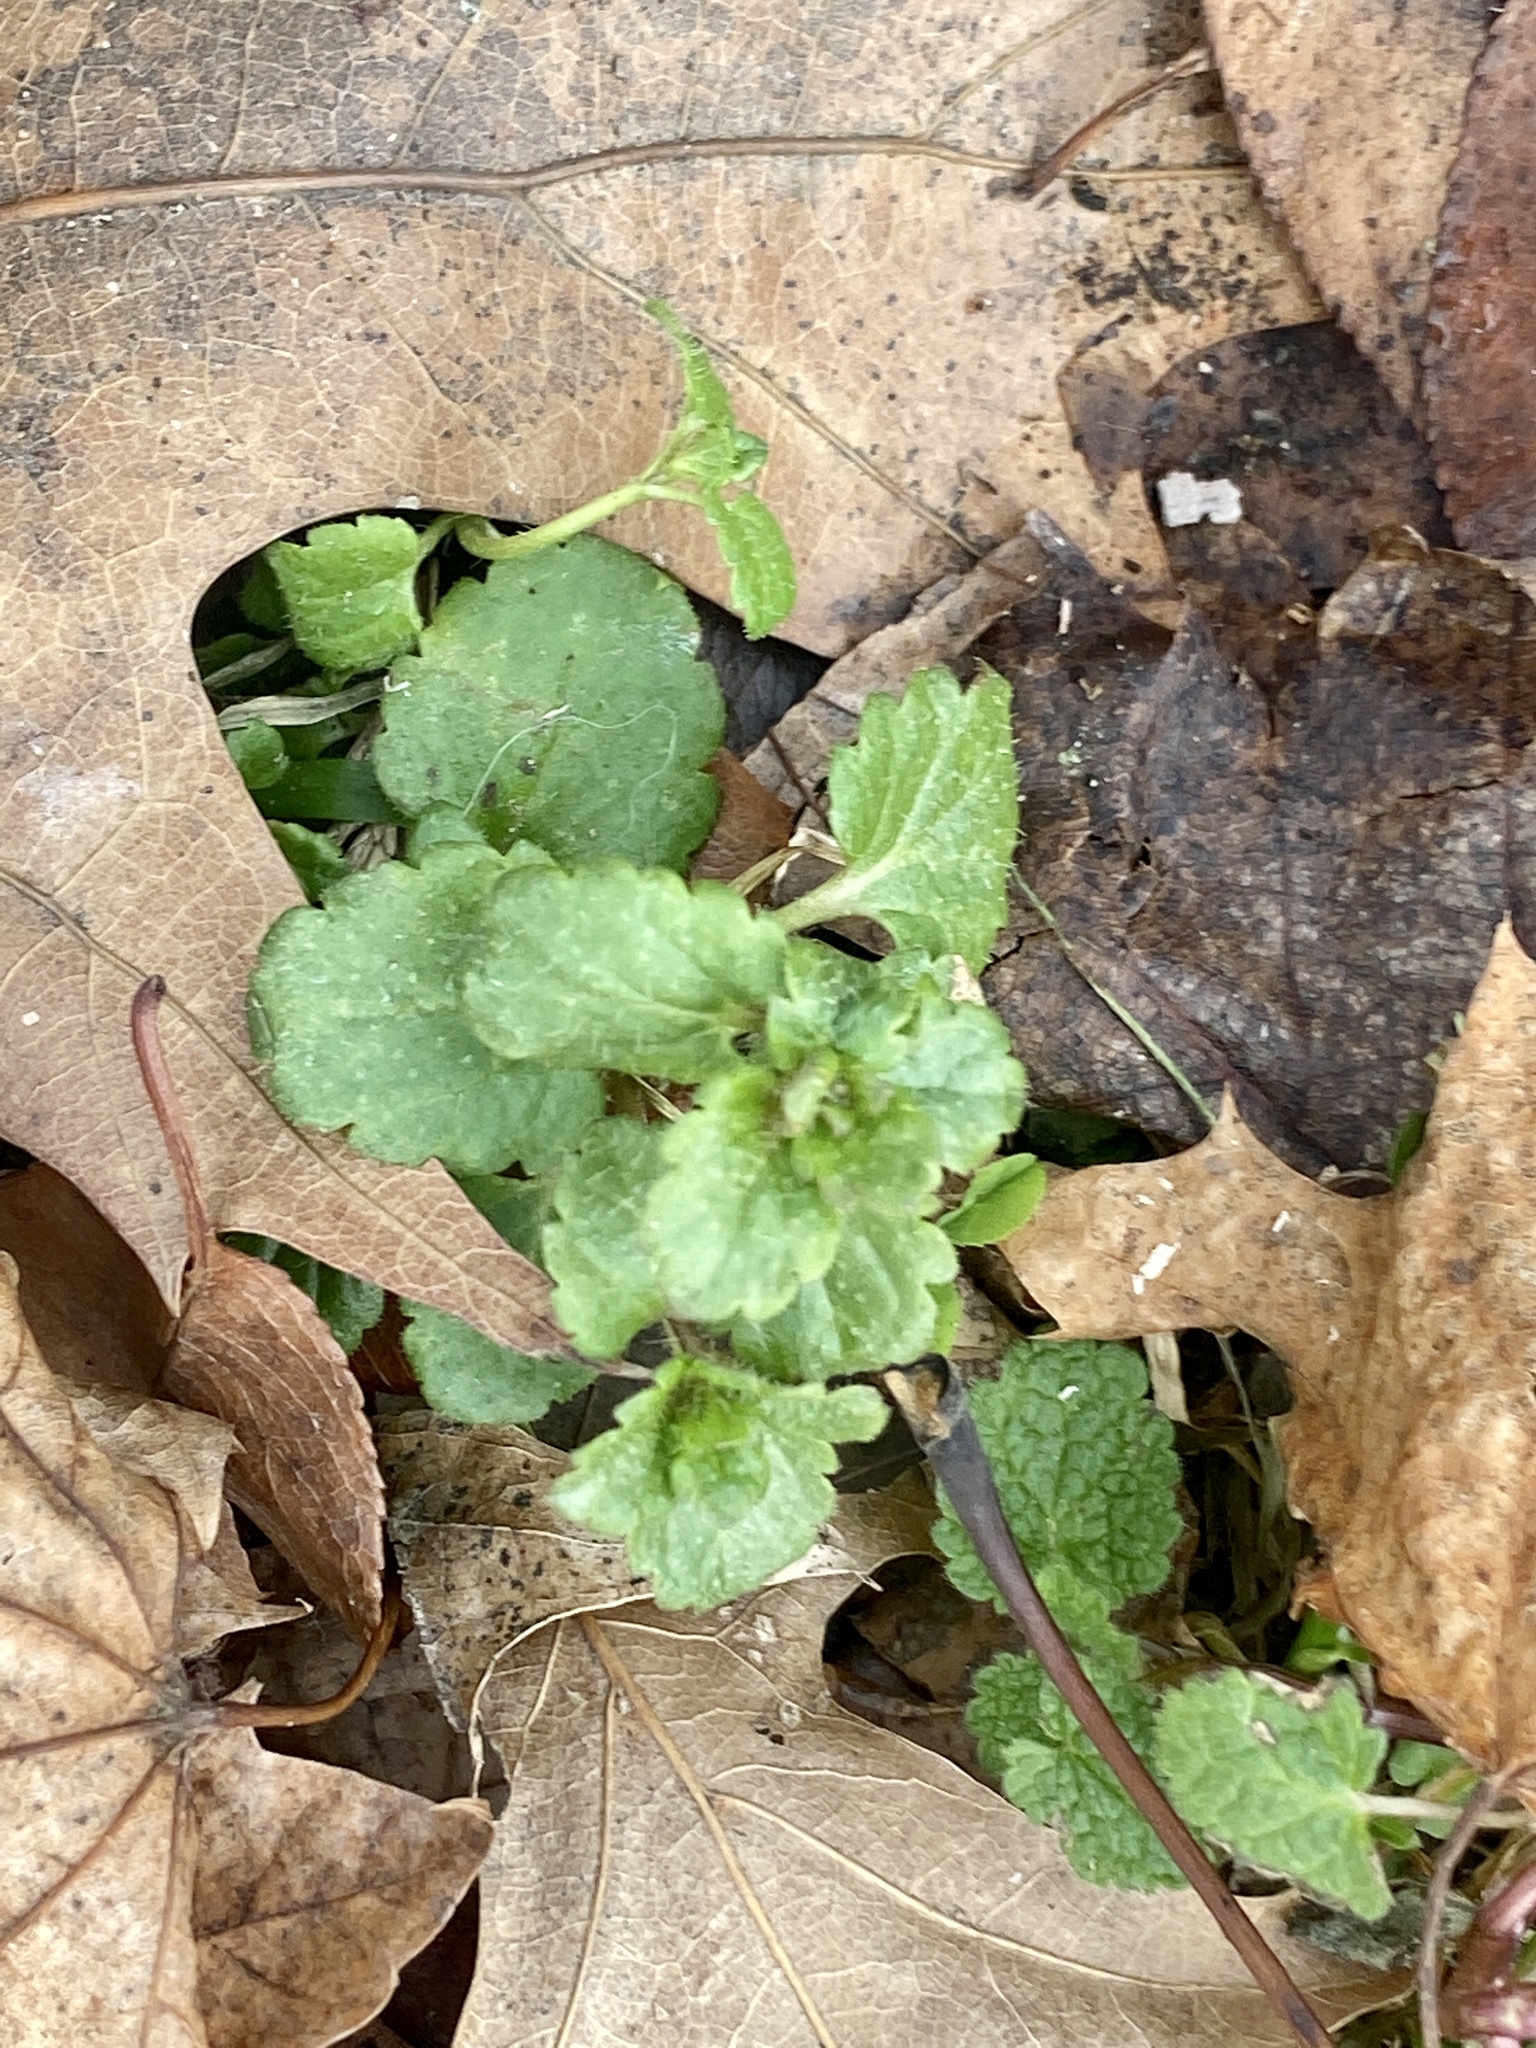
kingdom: Plantae
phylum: Tracheophyta
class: Magnoliopsida
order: Lamiales
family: Plantaginaceae
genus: Veronica
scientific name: Veronica persica
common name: Common field-speedwell
